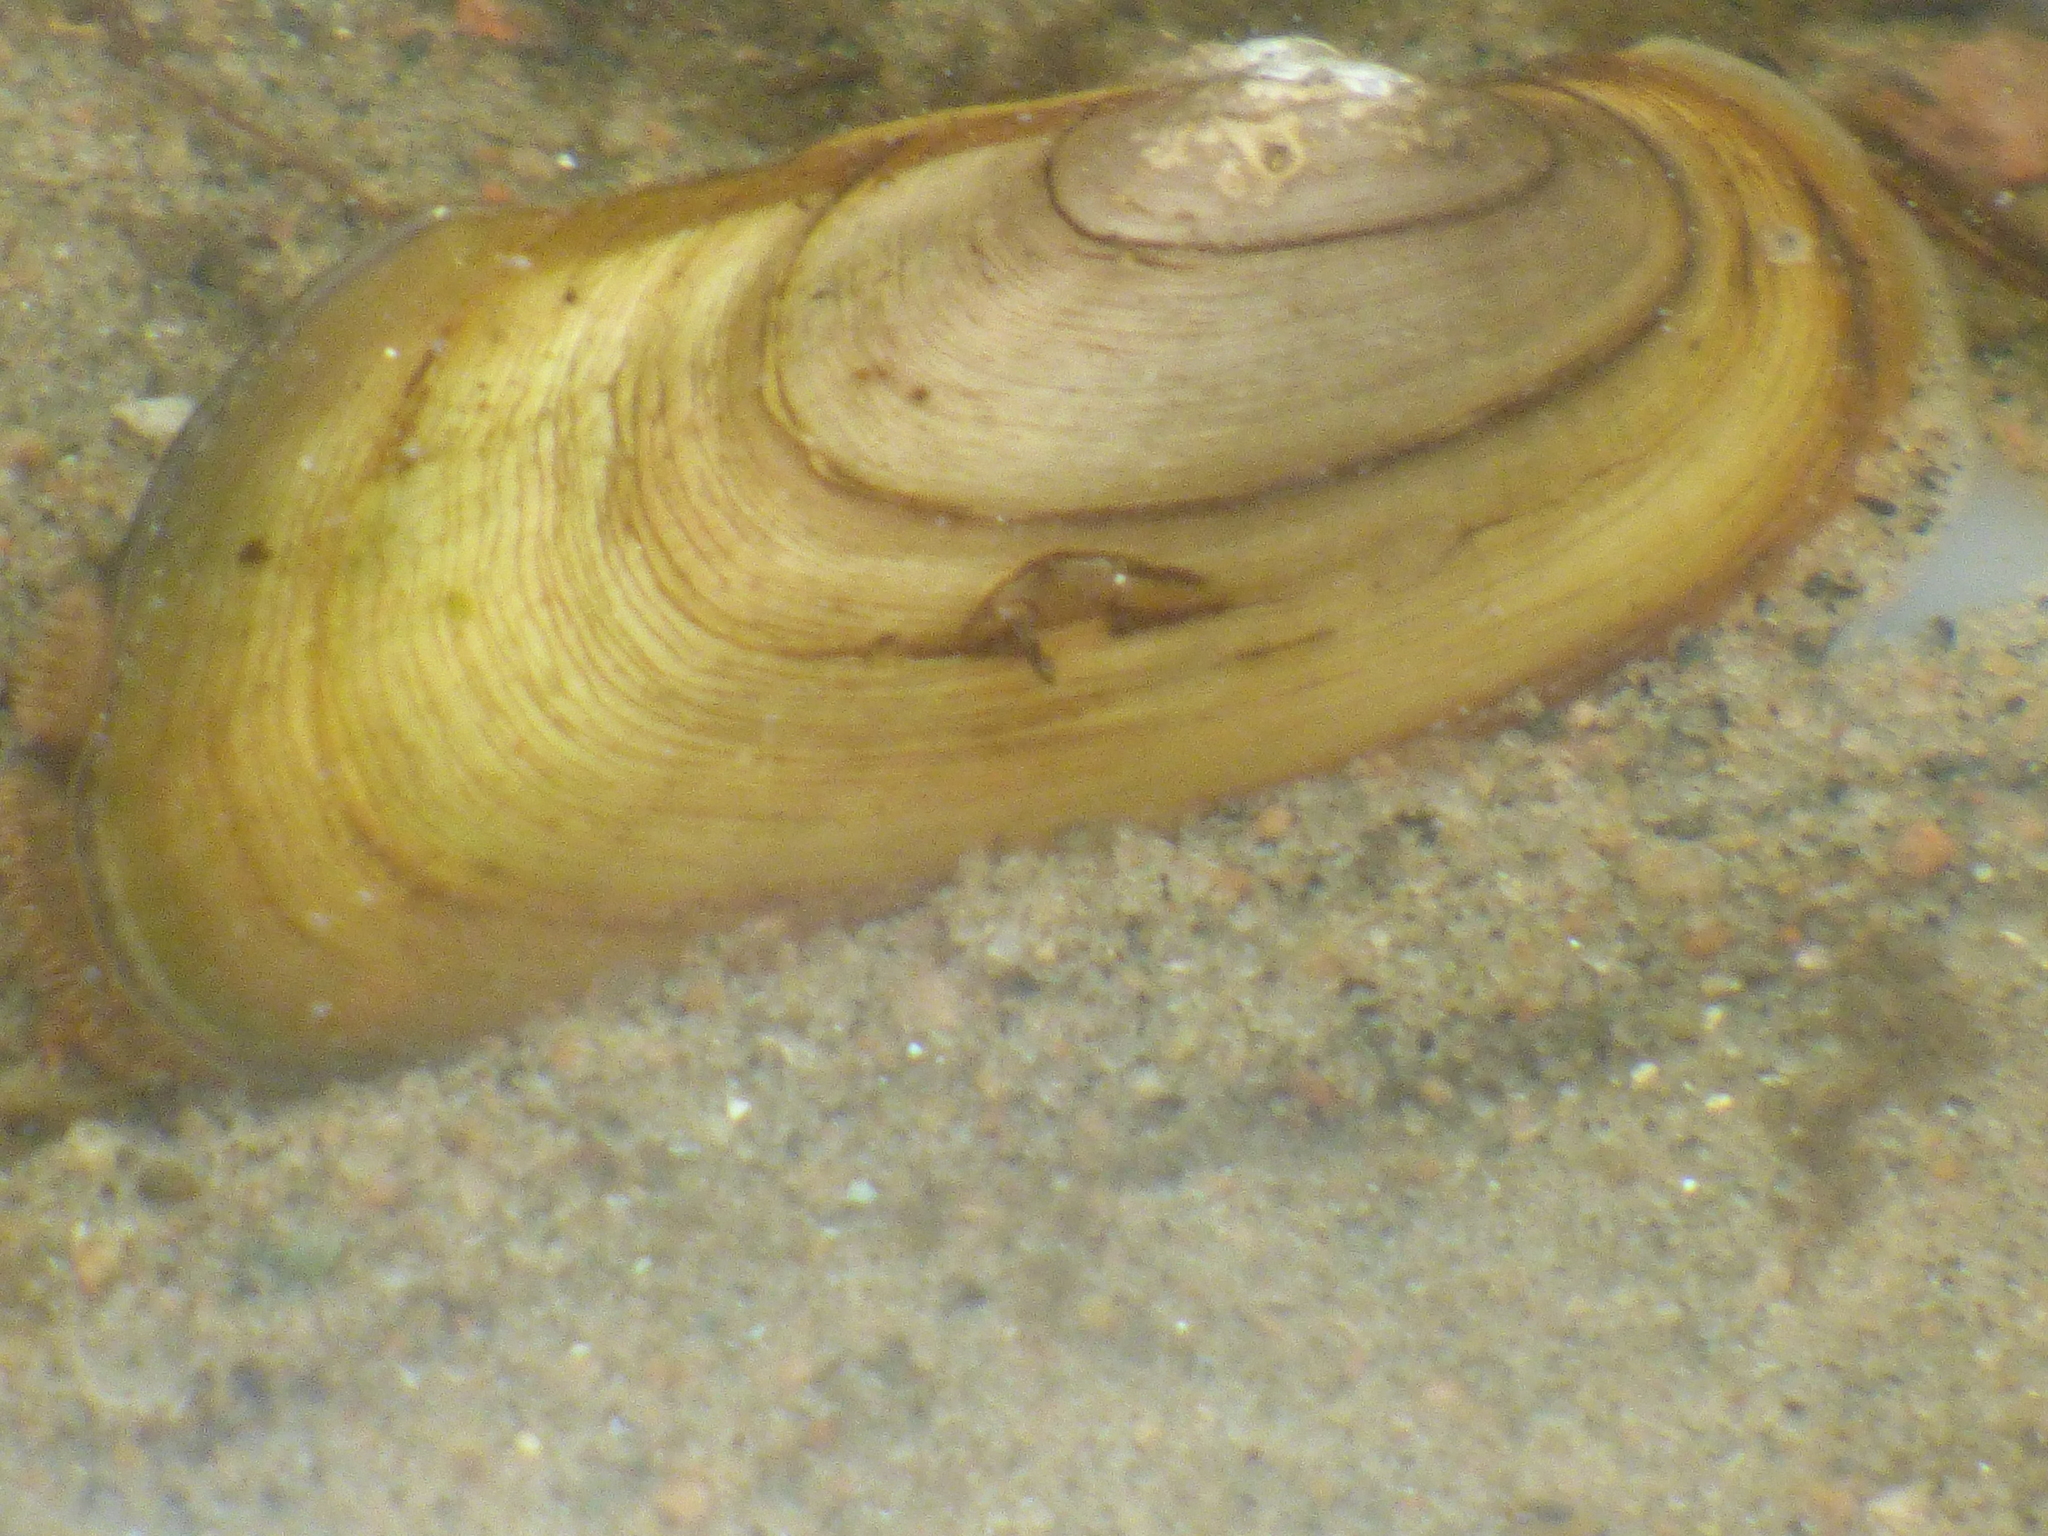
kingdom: Animalia
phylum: Mollusca
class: Bivalvia
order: Unionida
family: Unionidae
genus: Elliptio
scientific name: Elliptio complanata
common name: Eastern elliptio
